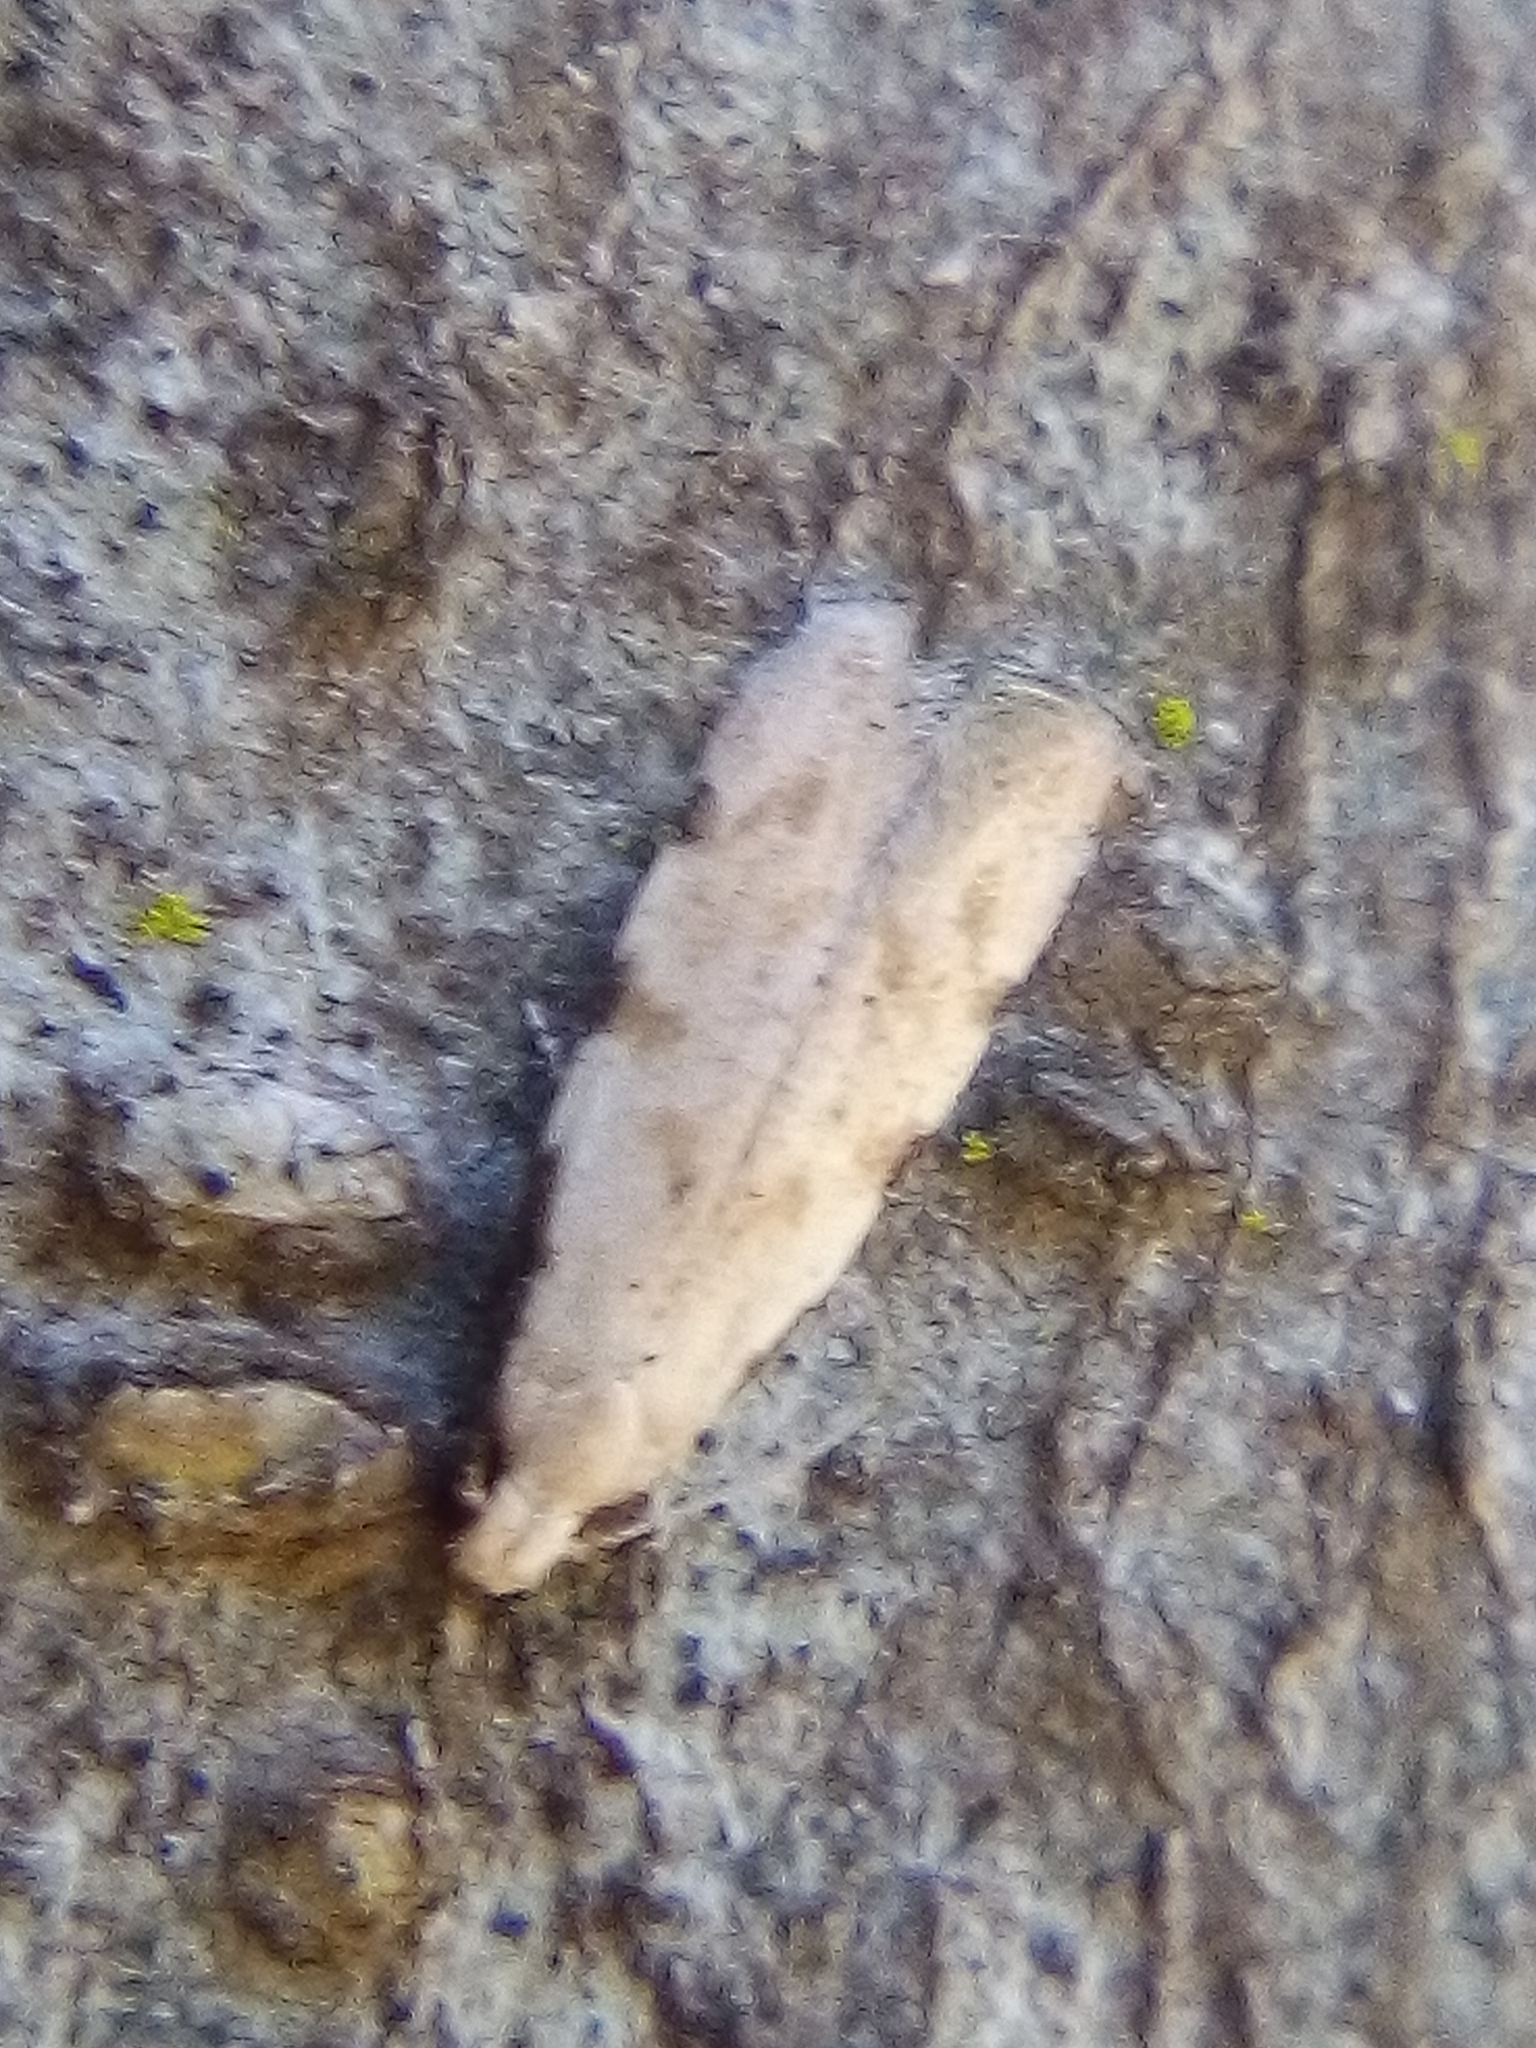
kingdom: Animalia
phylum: Arthropoda
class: Insecta
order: Lepidoptera
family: Tineidae
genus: Endophthora
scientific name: Endophthora omogramma
